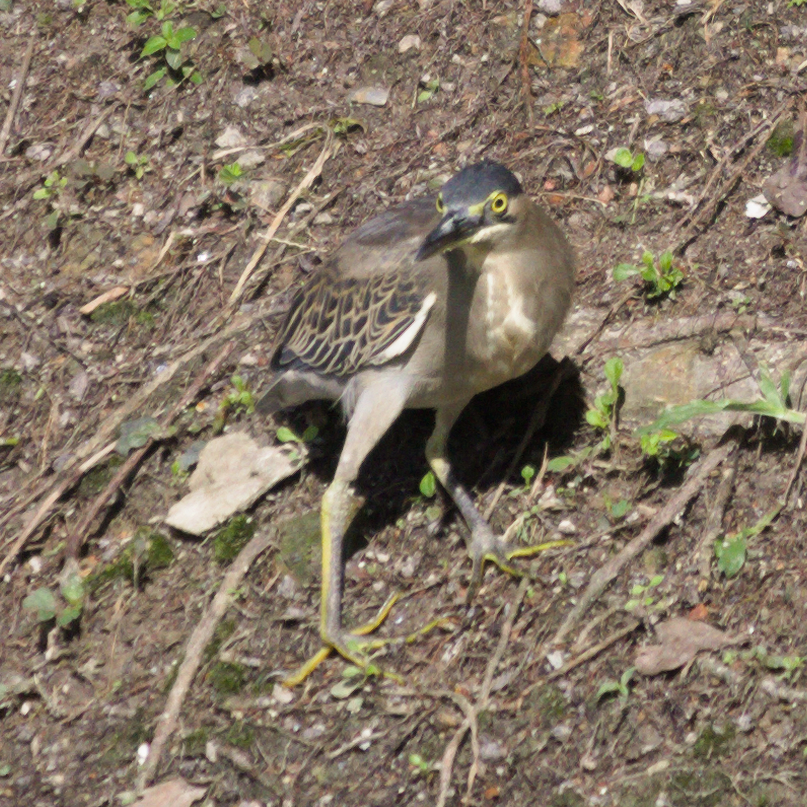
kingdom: Animalia
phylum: Chordata
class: Aves
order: Pelecaniformes
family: Ardeidae
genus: Butorides
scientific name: Butorides striata
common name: Striated heron
